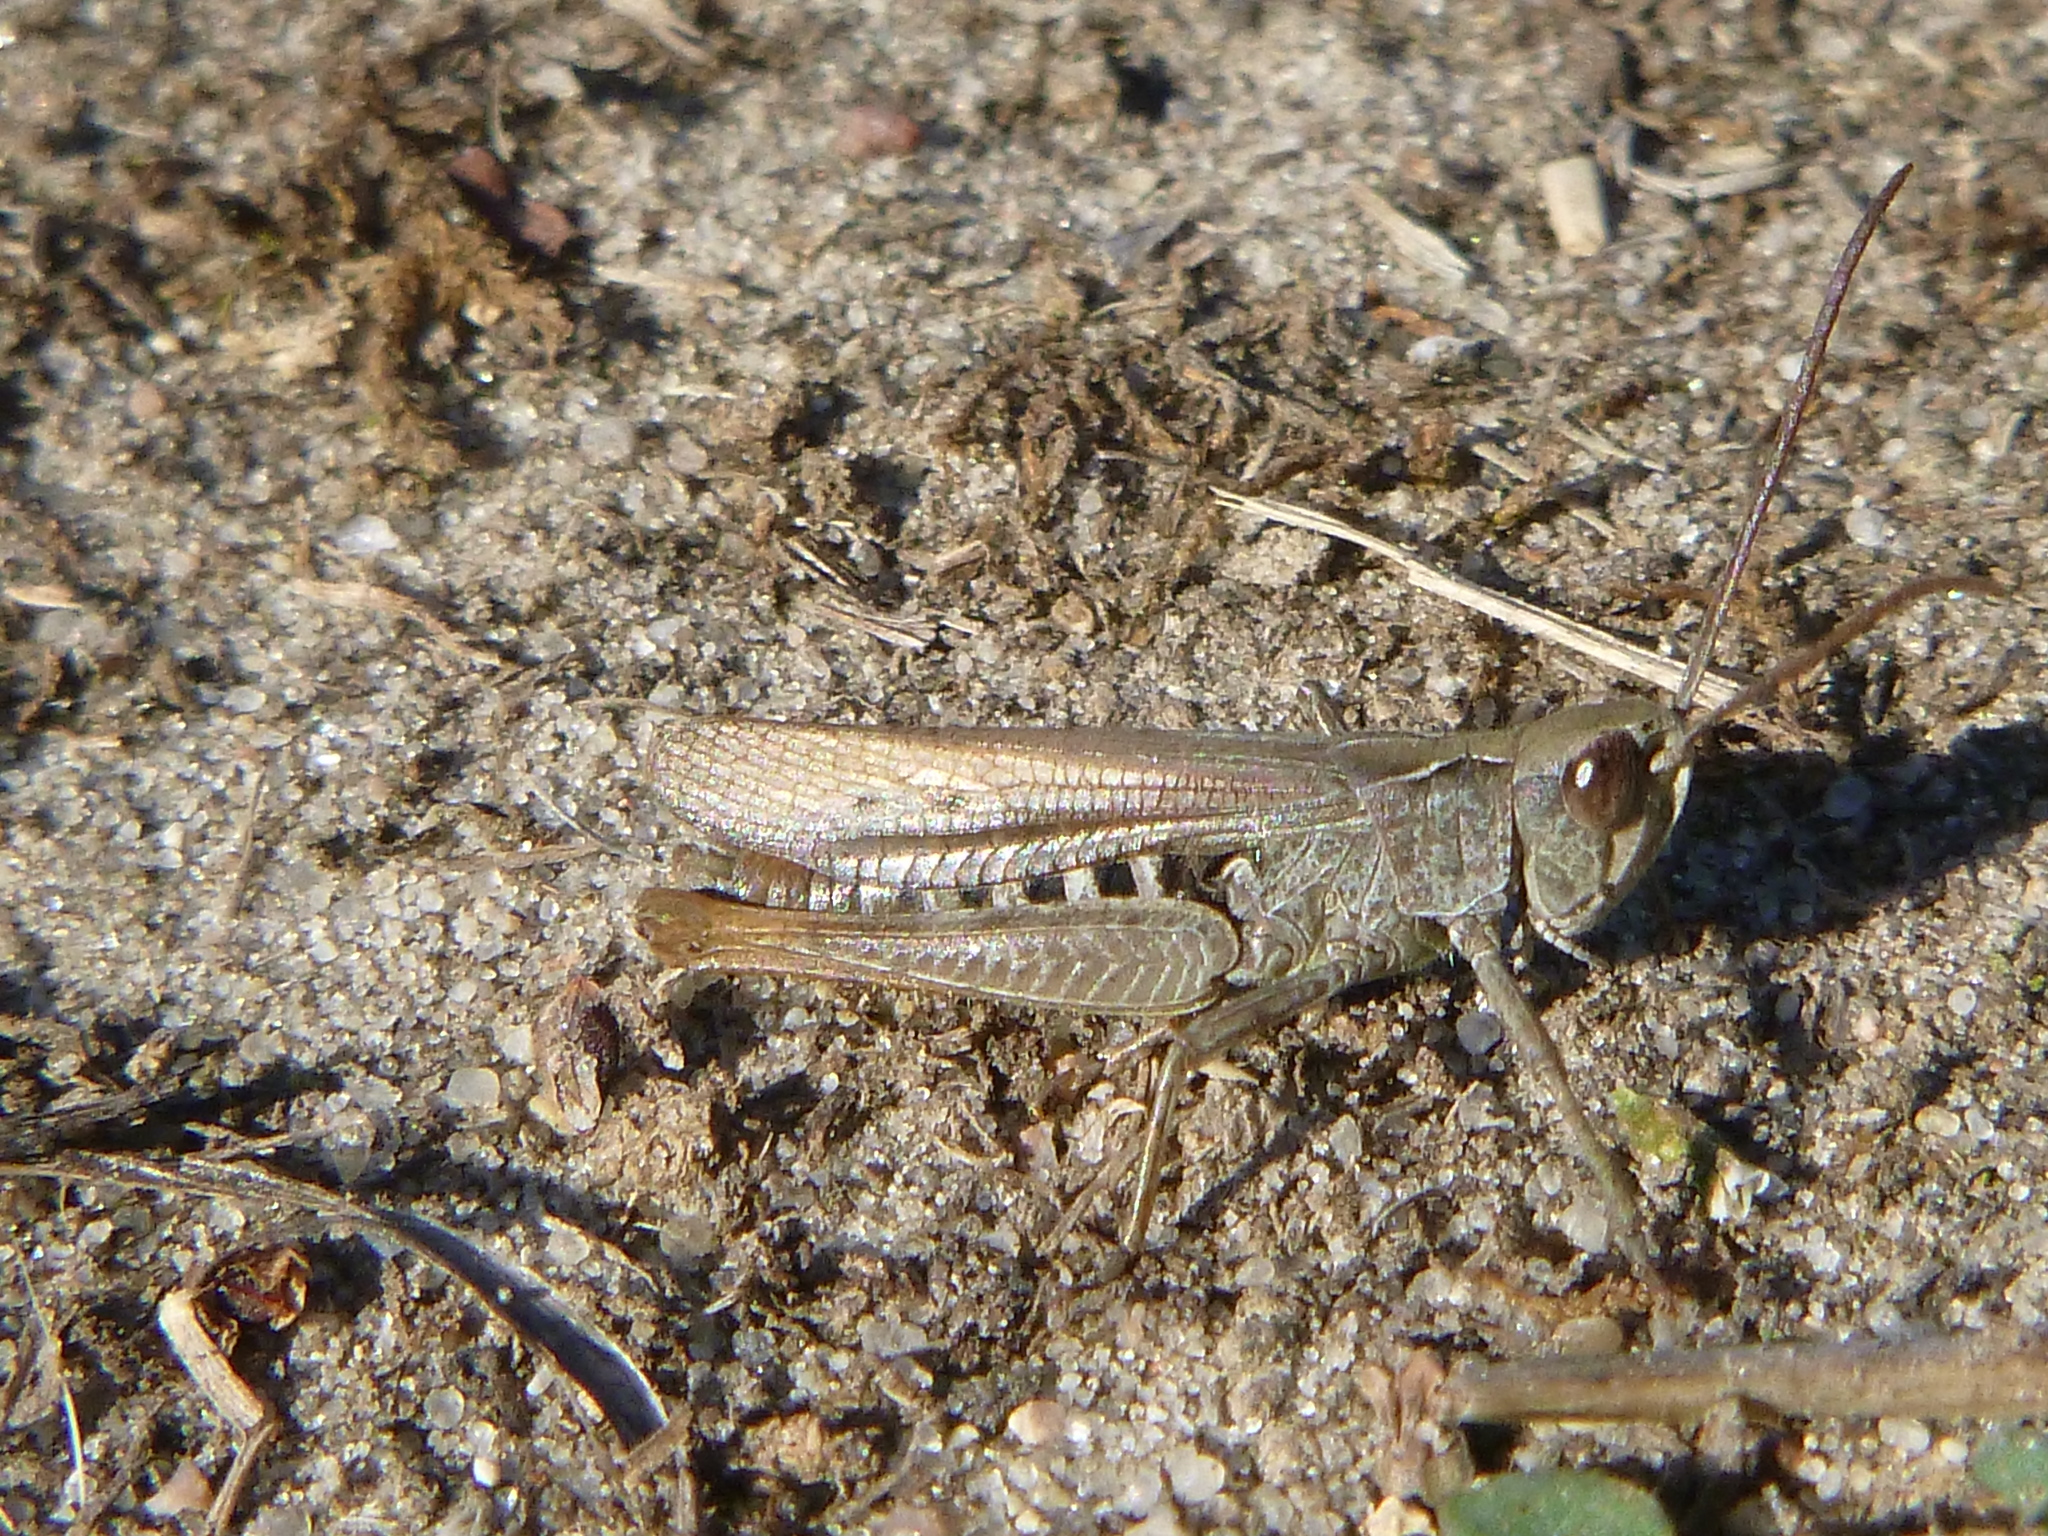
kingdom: Animalia
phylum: Arthropoda
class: Insecta
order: Orthoptera
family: Acrididae
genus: Chorthippus
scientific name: Chorthippus biguttulus
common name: Bow-winged grasshopper
